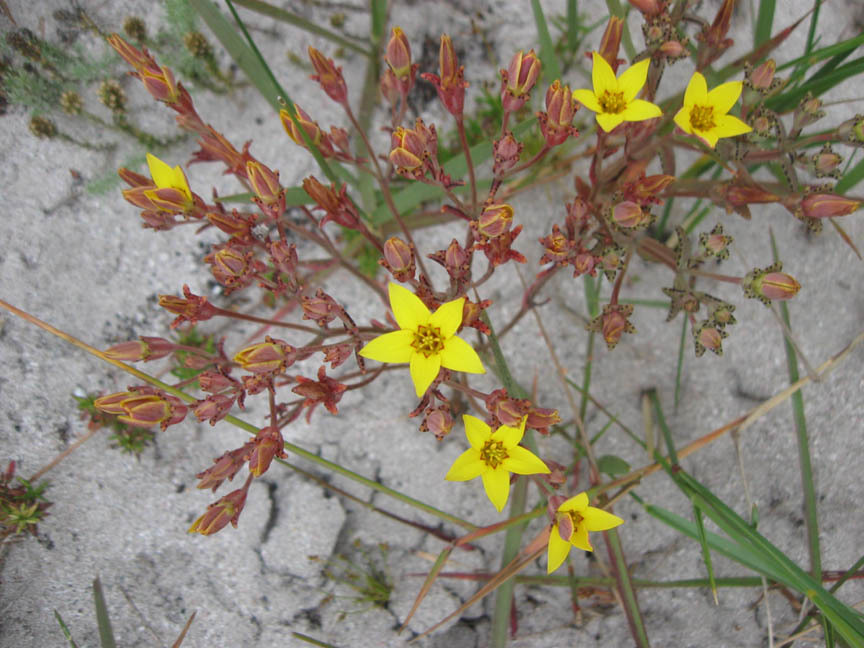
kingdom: Plantae
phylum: Tracheophyta
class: Magnoliopsida
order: Saxifragales
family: Crassulaceae
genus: Crassula
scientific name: Crassula dichotoma
